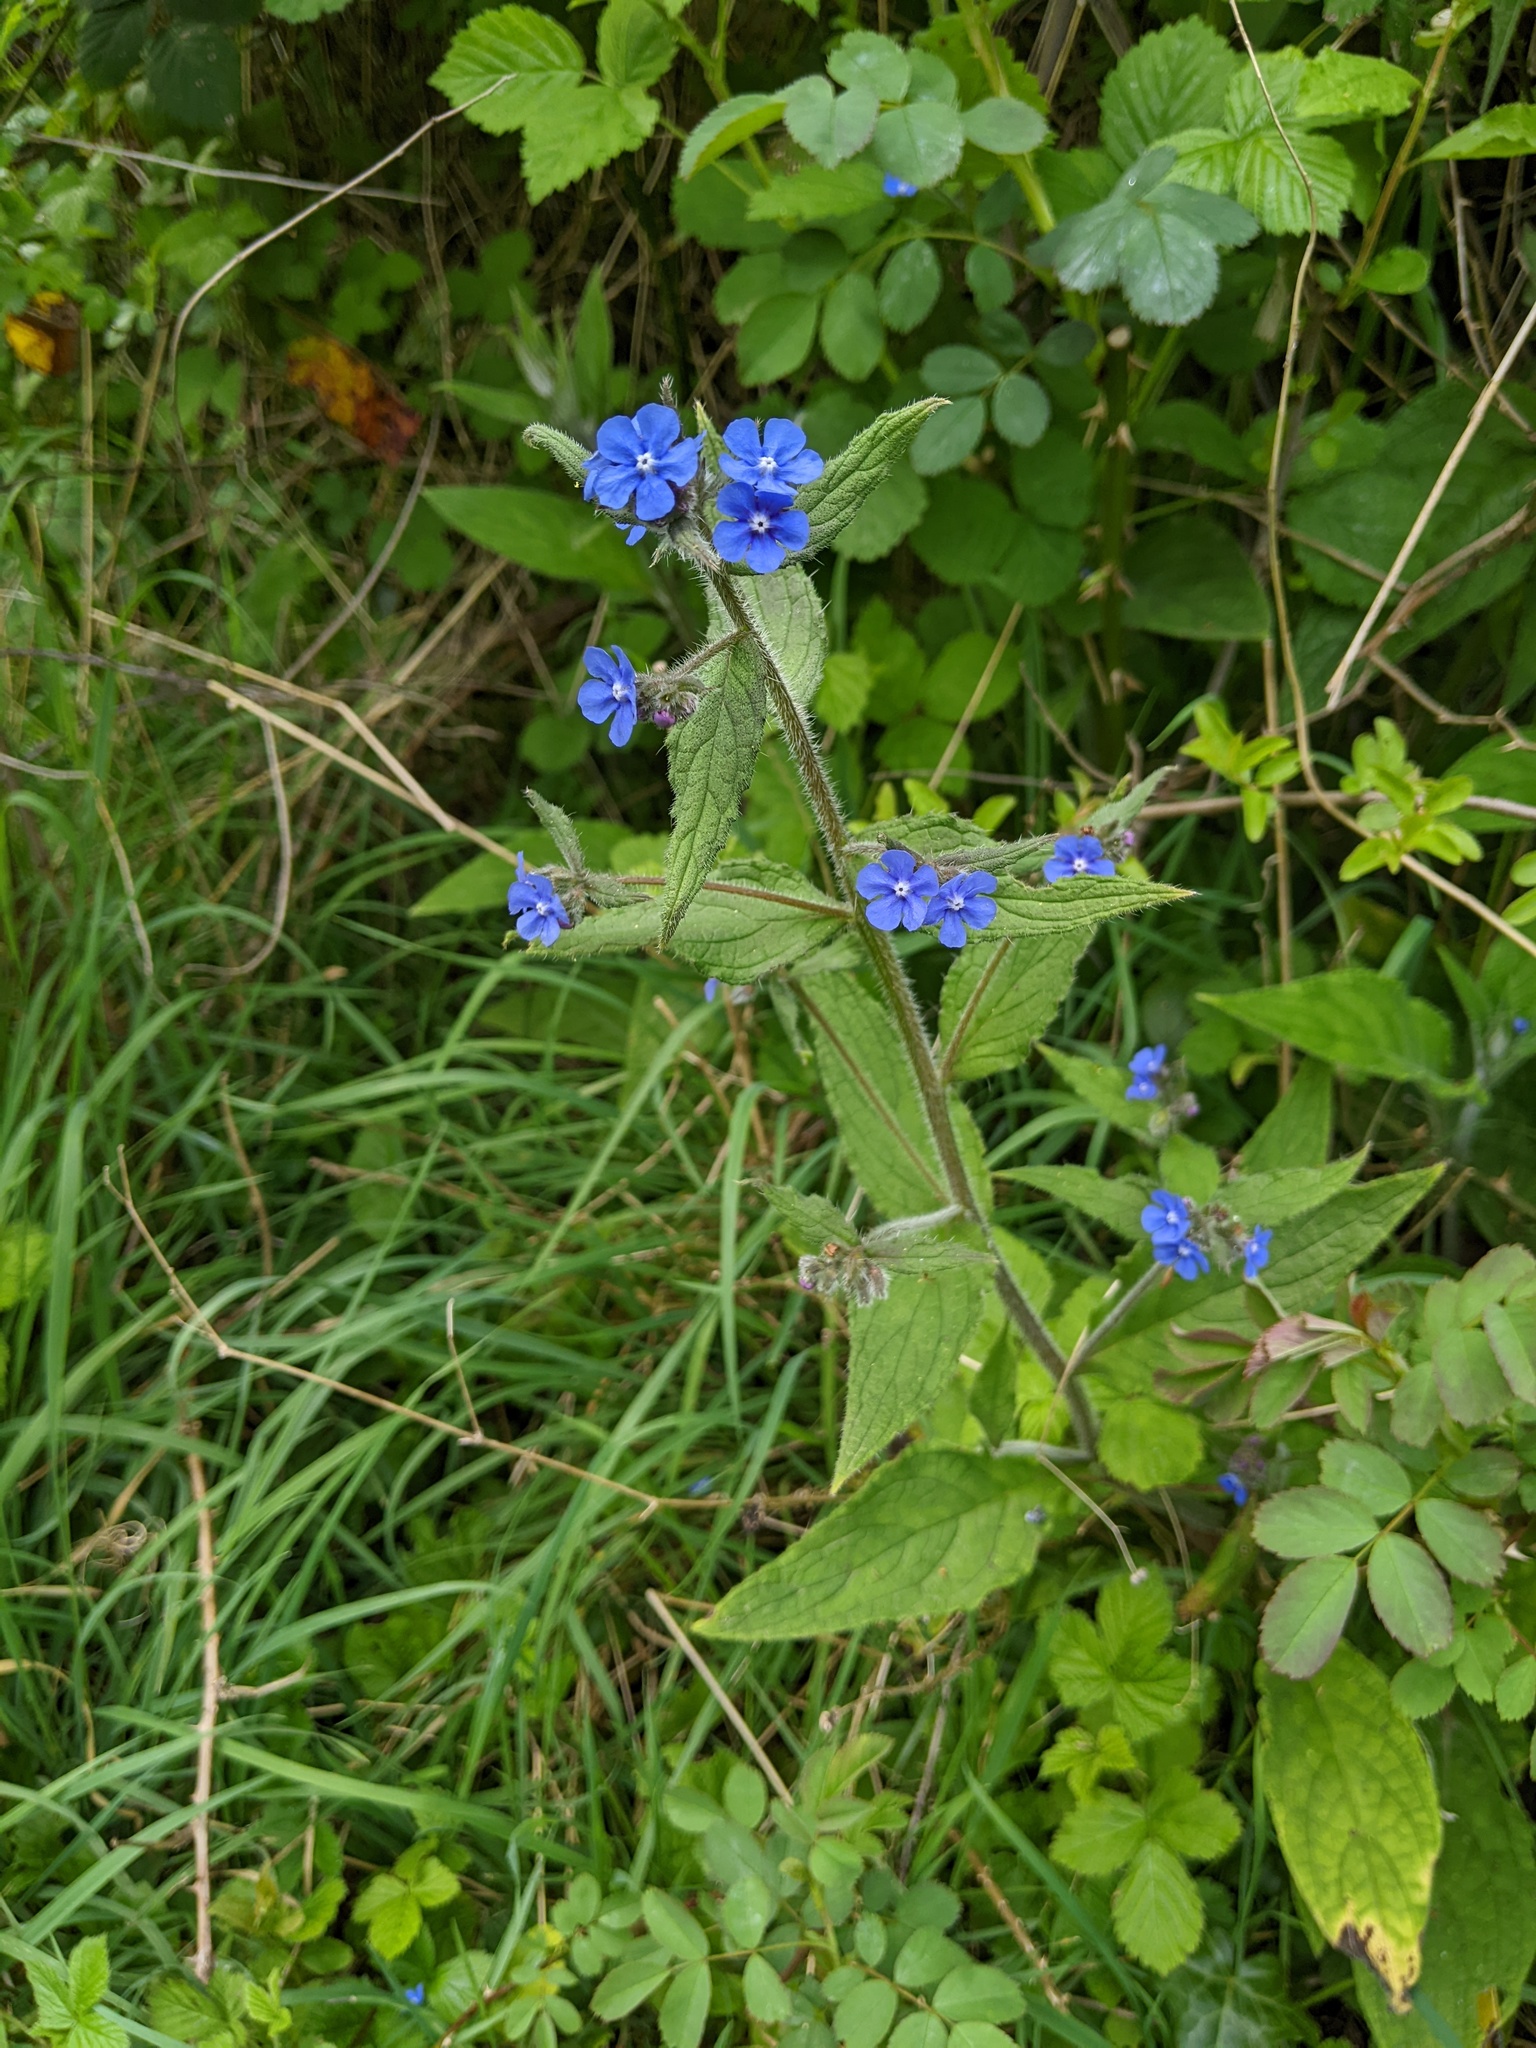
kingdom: Plantae
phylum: Tracheophyta
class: Magnoliopsida
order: Boraginales
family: Boraginaceae
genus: Pentaglottis
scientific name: Pentaglottis sempervirens
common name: Green alkanet
